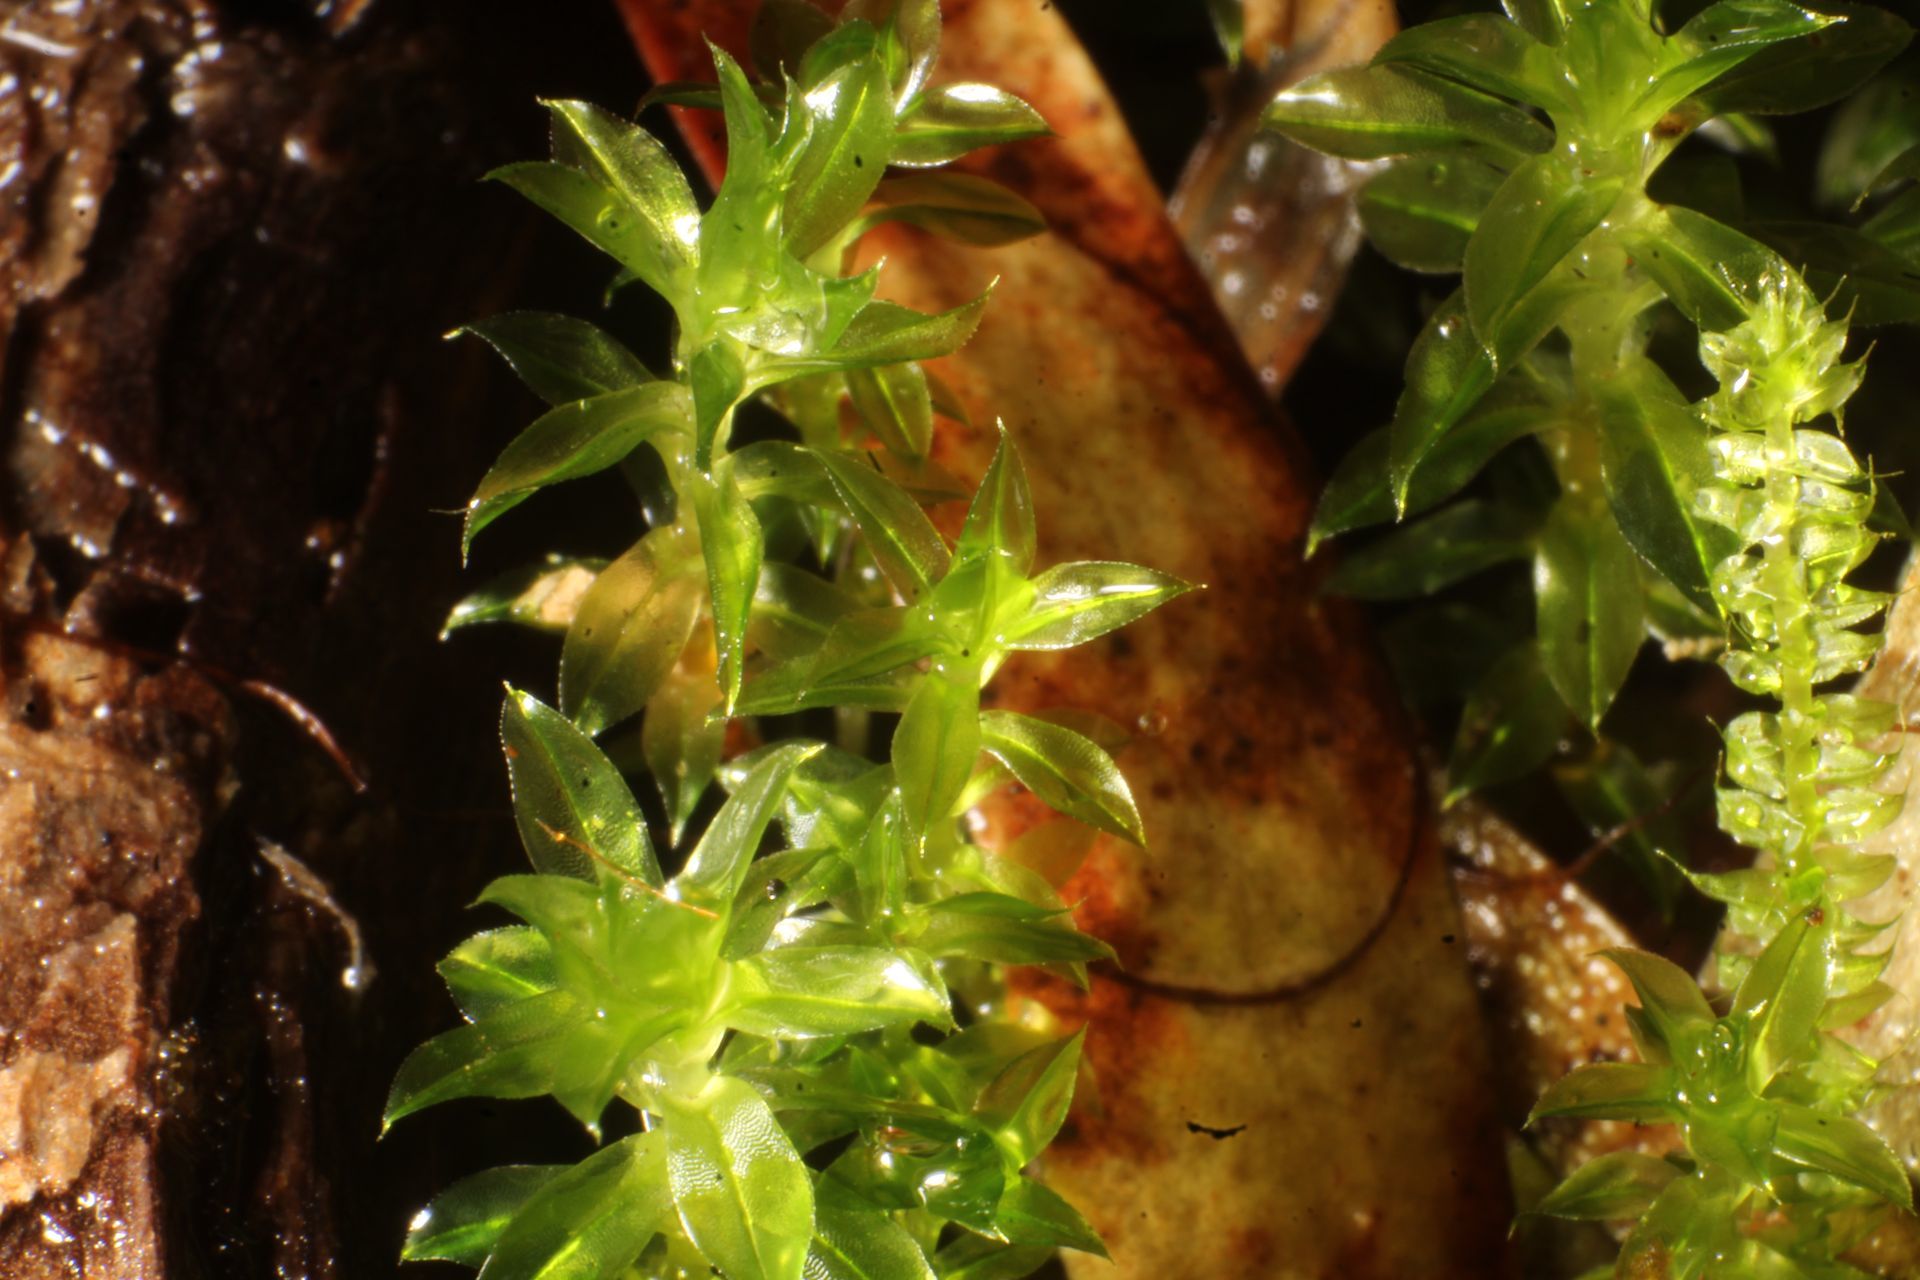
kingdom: Plantae
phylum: Bryophyta
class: Bryopsida
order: Bryales
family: Bryaceae
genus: Rosulabryum
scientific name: Rosulabryum subfasciculatum
